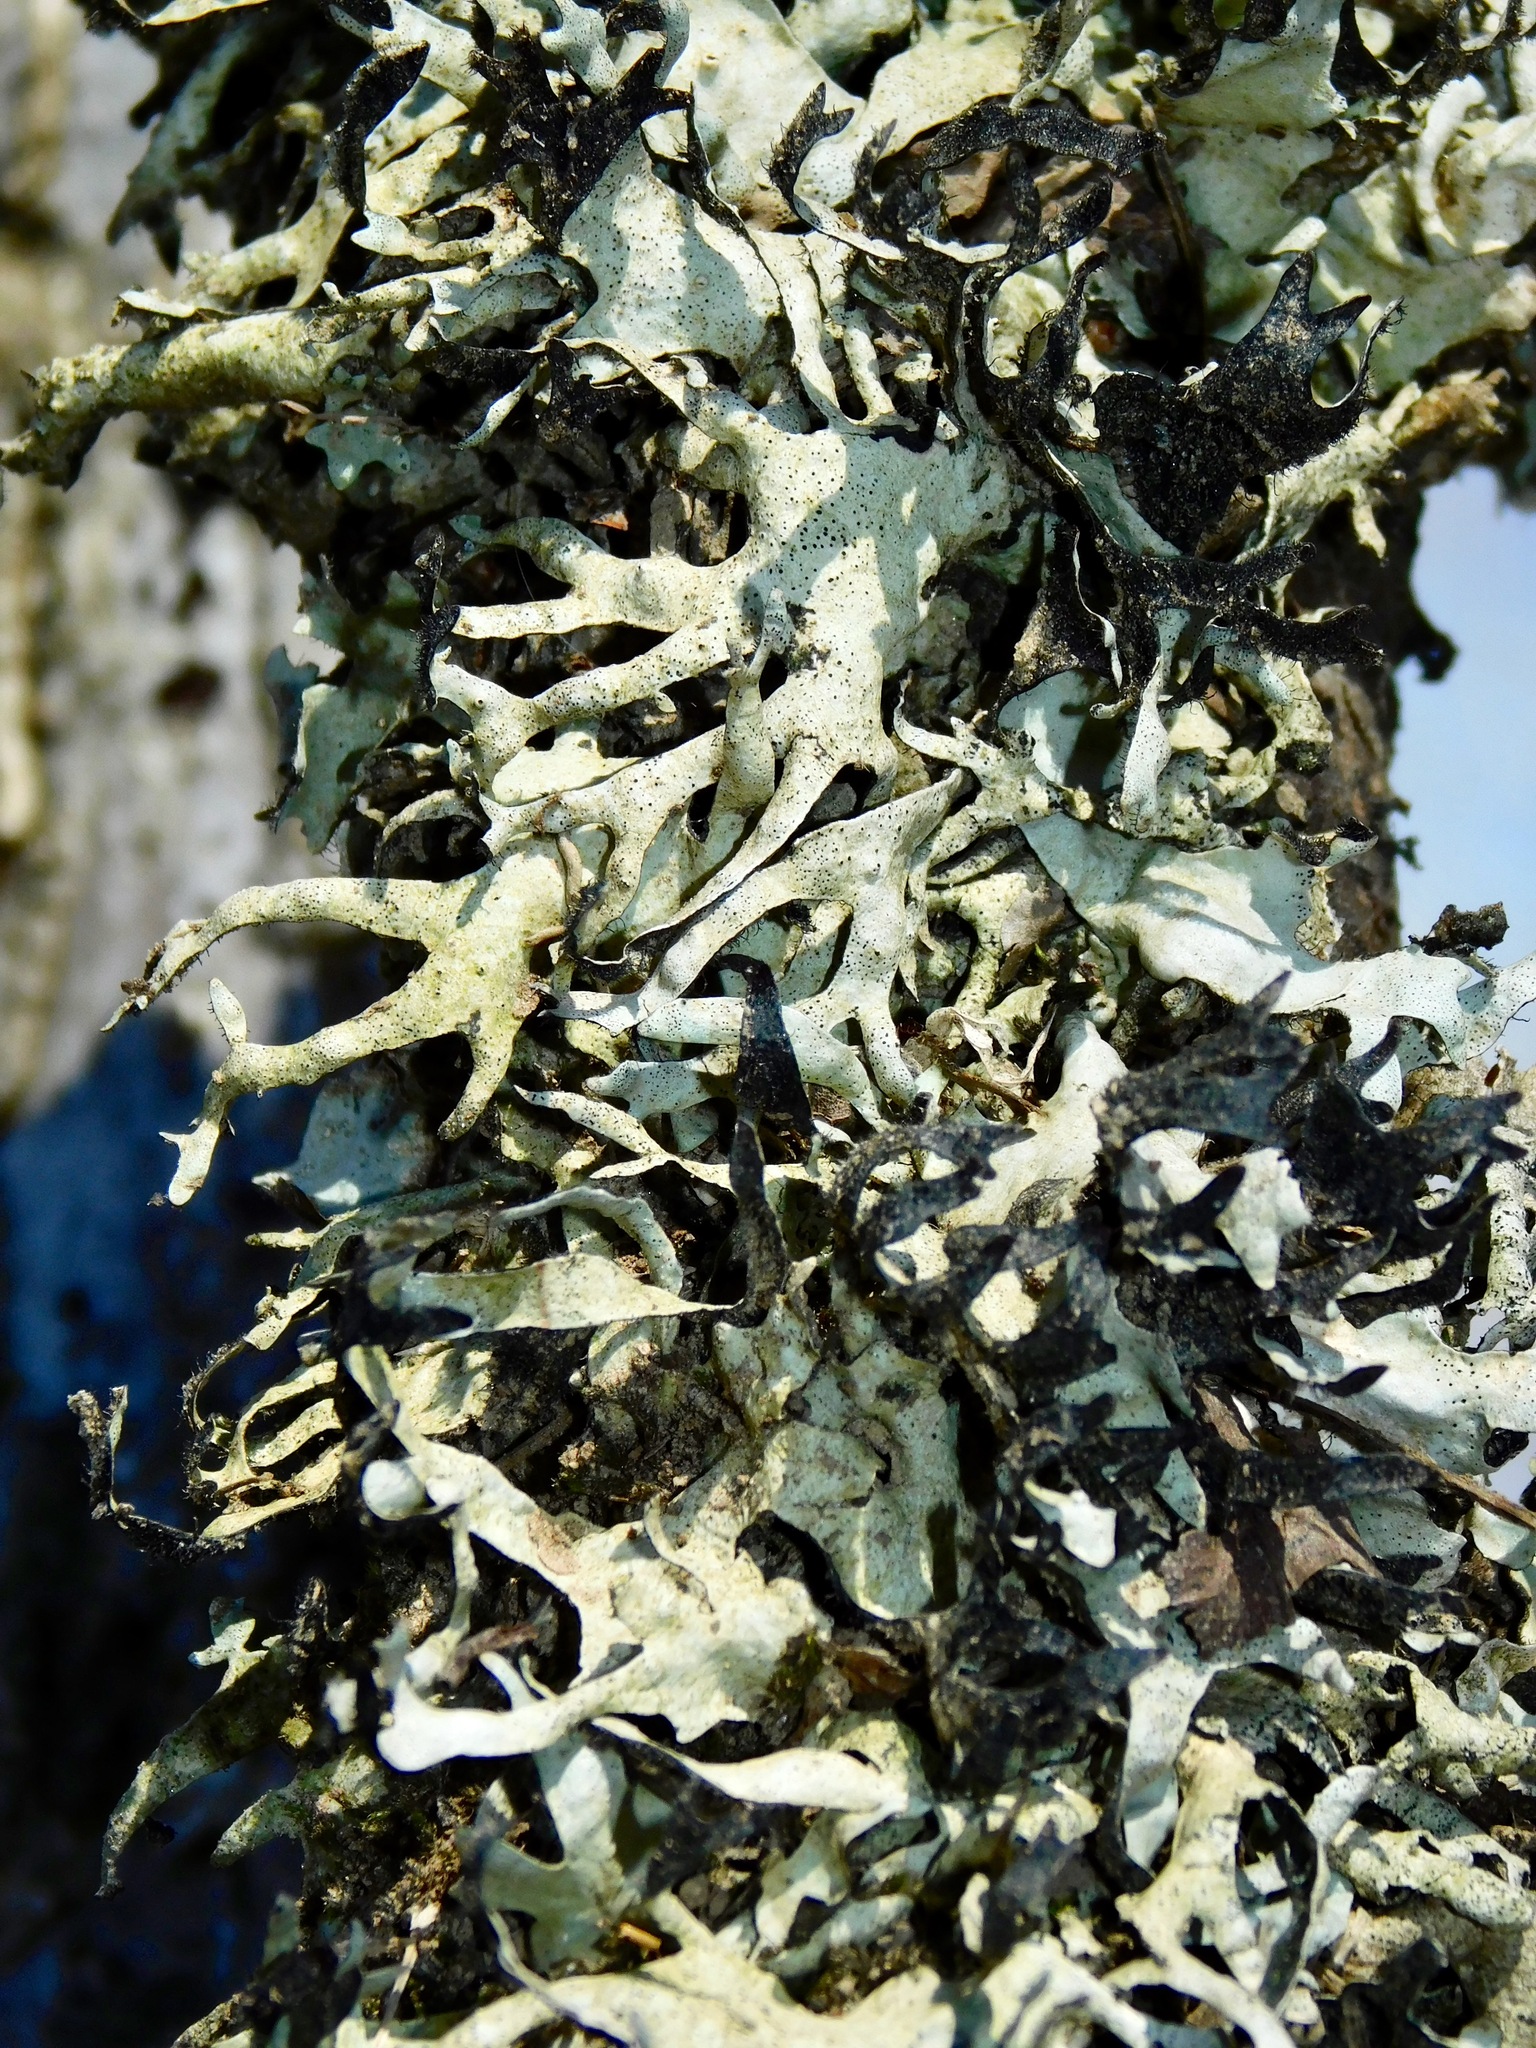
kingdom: Fungi
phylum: Ascomycota
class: Lecanoromycetes
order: Lecanorales
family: Parmeliaceae
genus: Parmotrema
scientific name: Parmotrema cetratum
